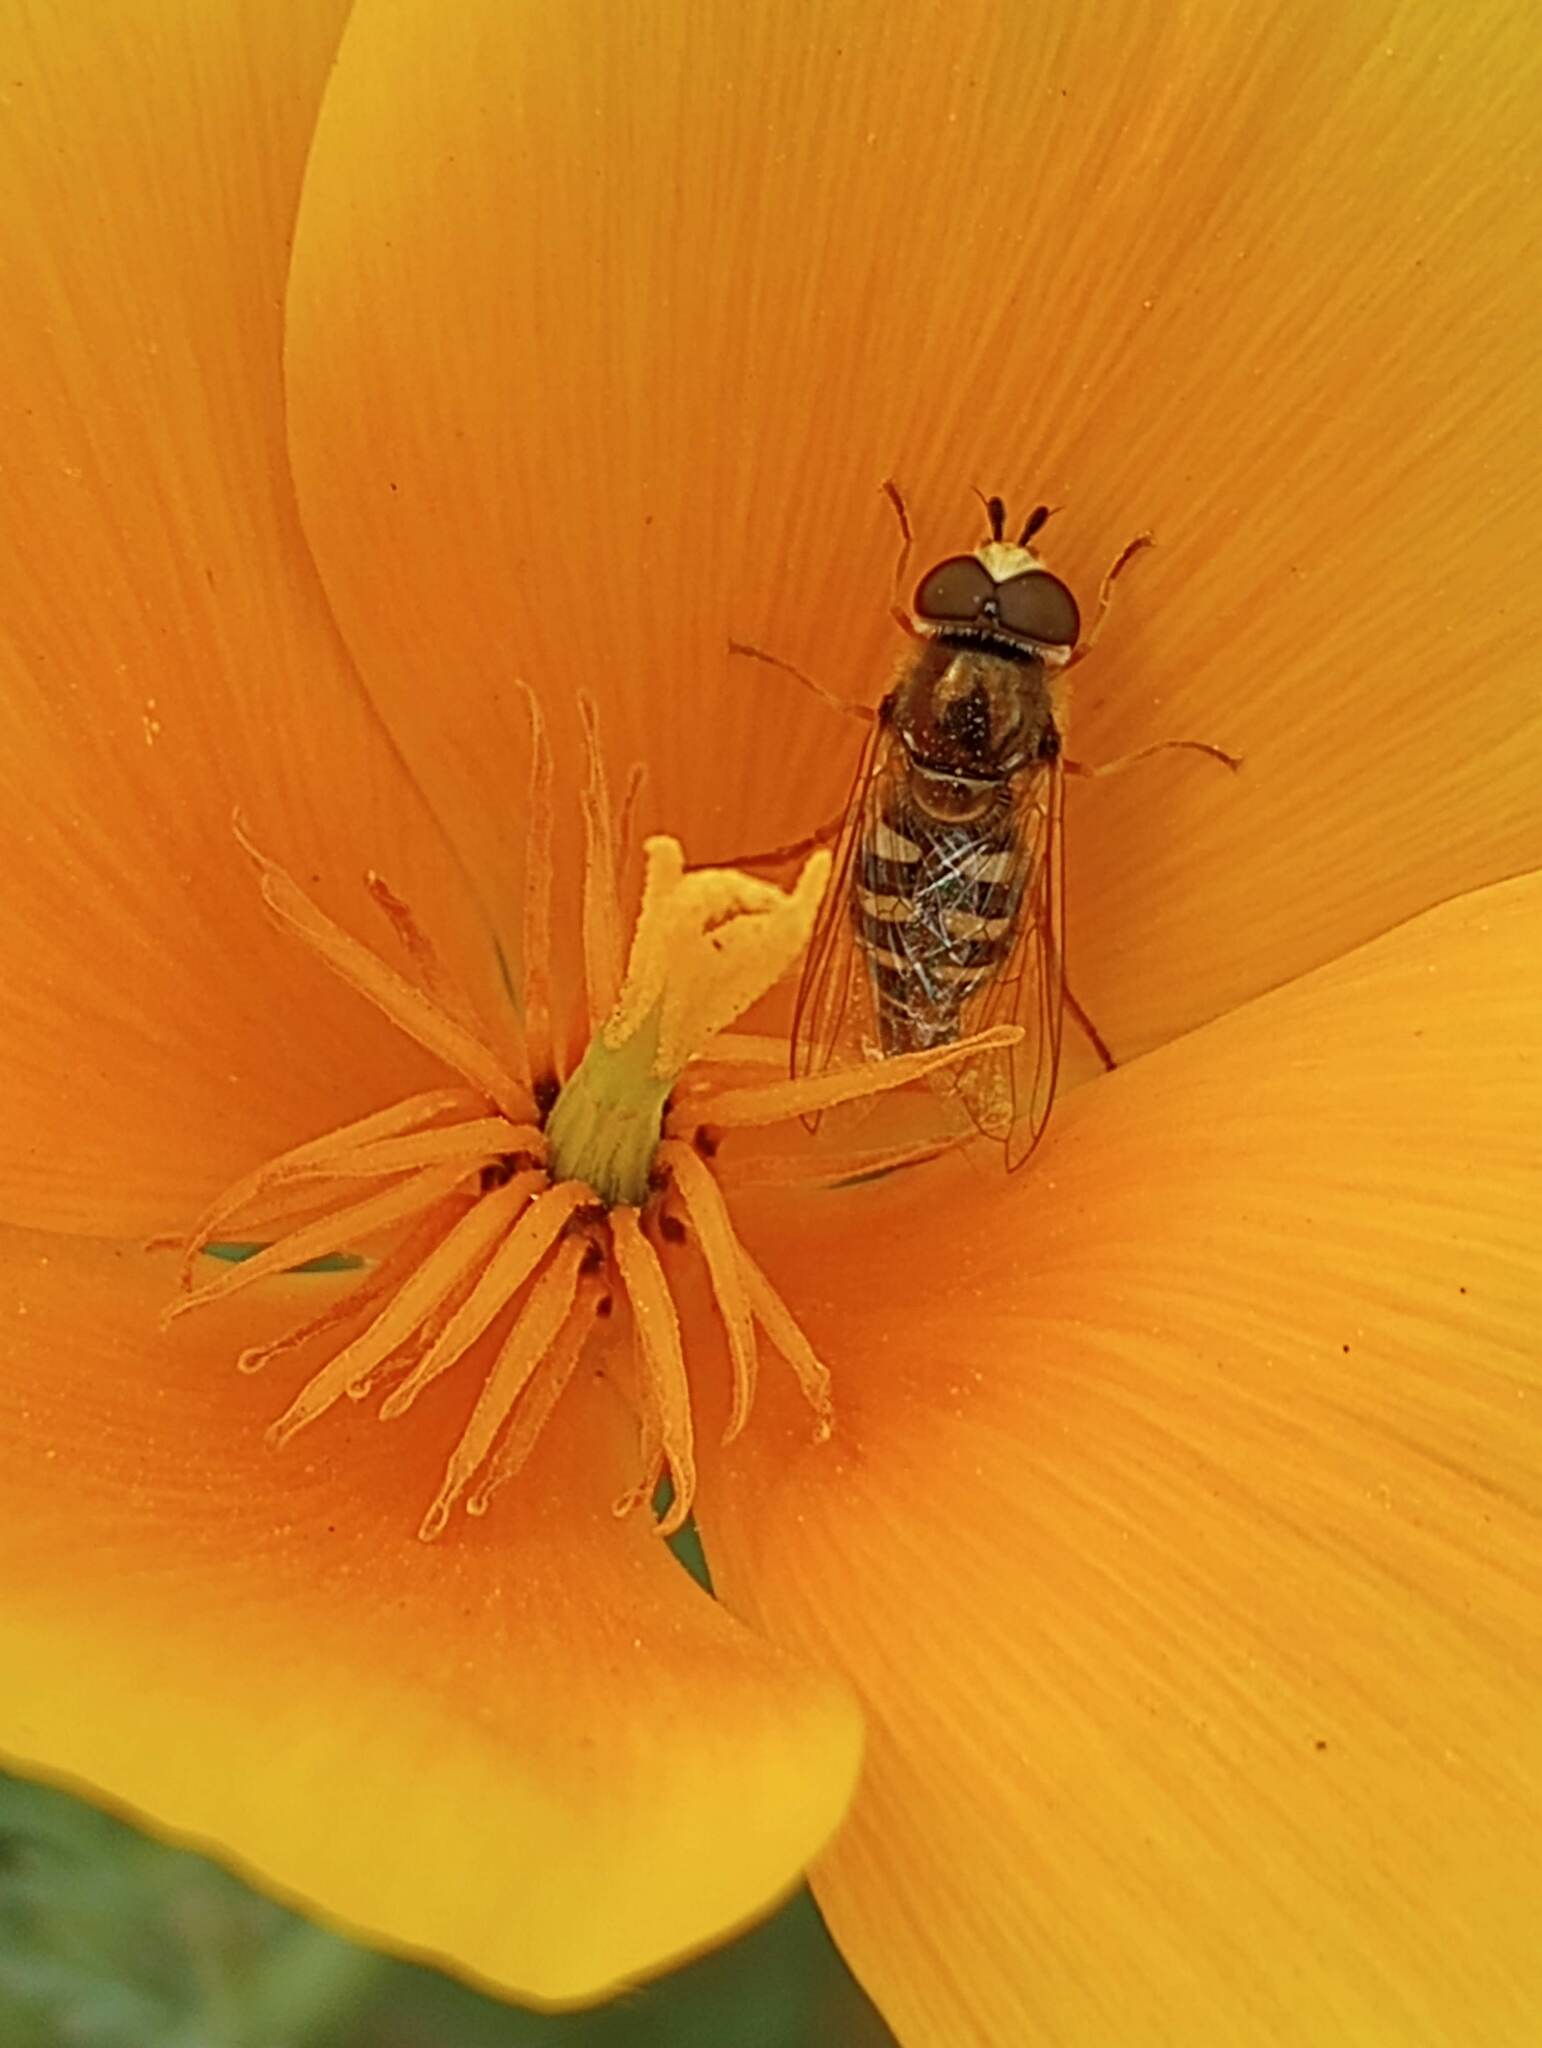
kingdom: Animalia
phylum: Arthropoda
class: Insecta
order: Diptera
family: Syrphidae
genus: Eupeodes
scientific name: Eupeodes volucris
